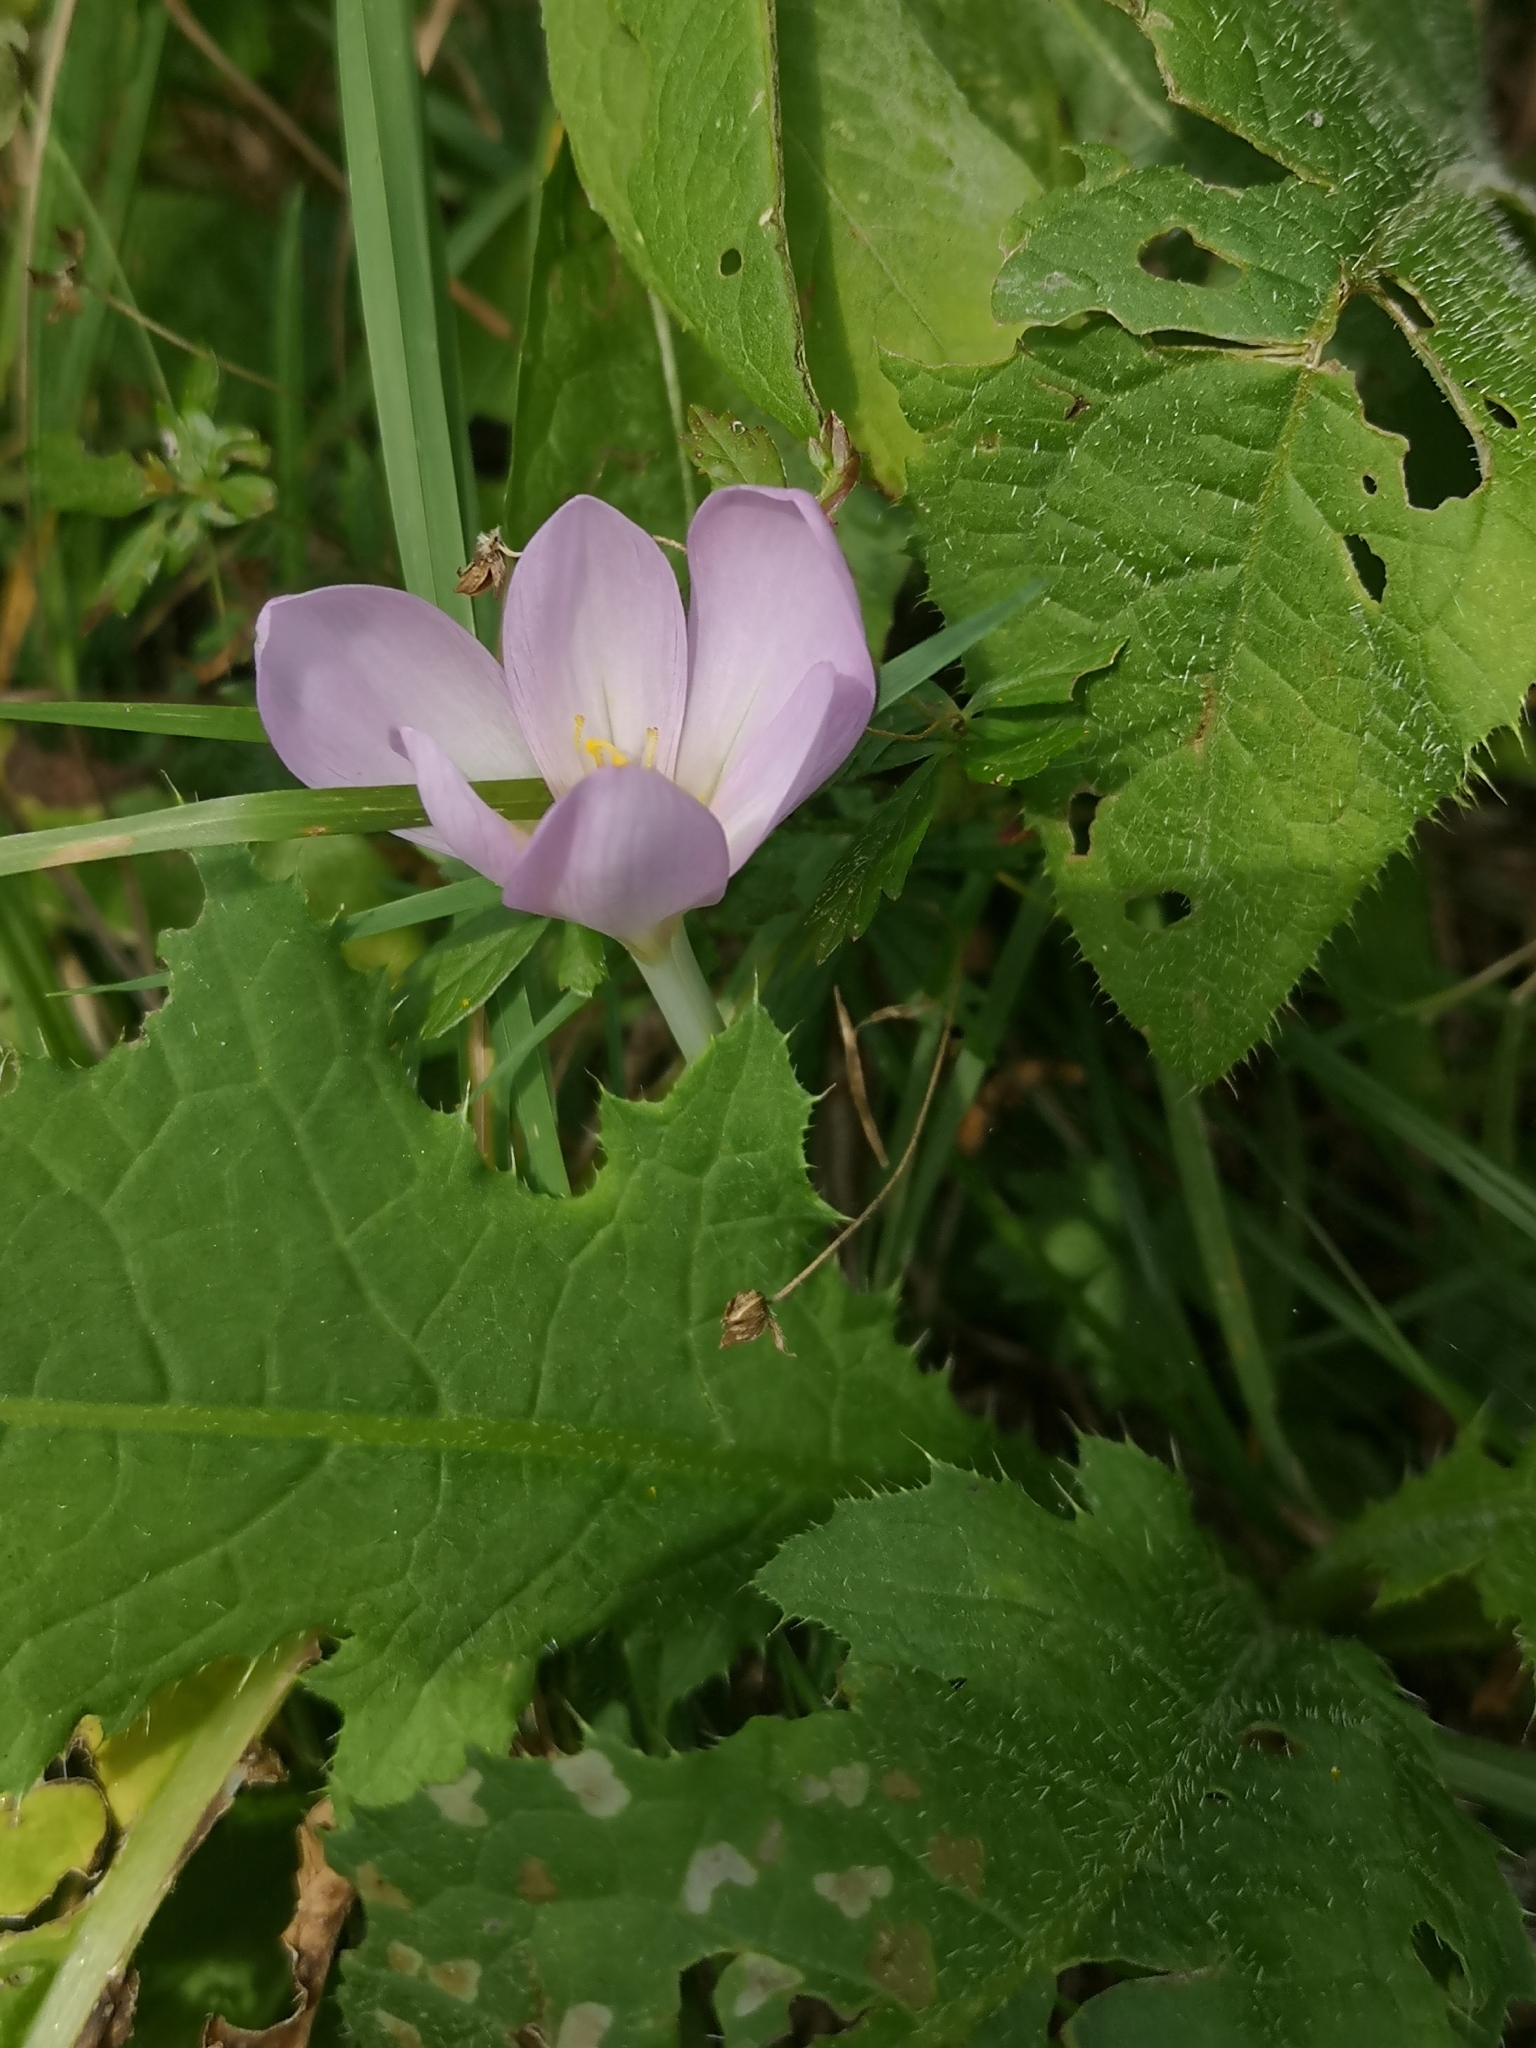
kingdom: Plantae
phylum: Tracheophyta
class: Liliopsida
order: Liliales
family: Colchicaceae
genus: Colchicum
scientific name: Colchicum autumnale
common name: Autumn crocus
